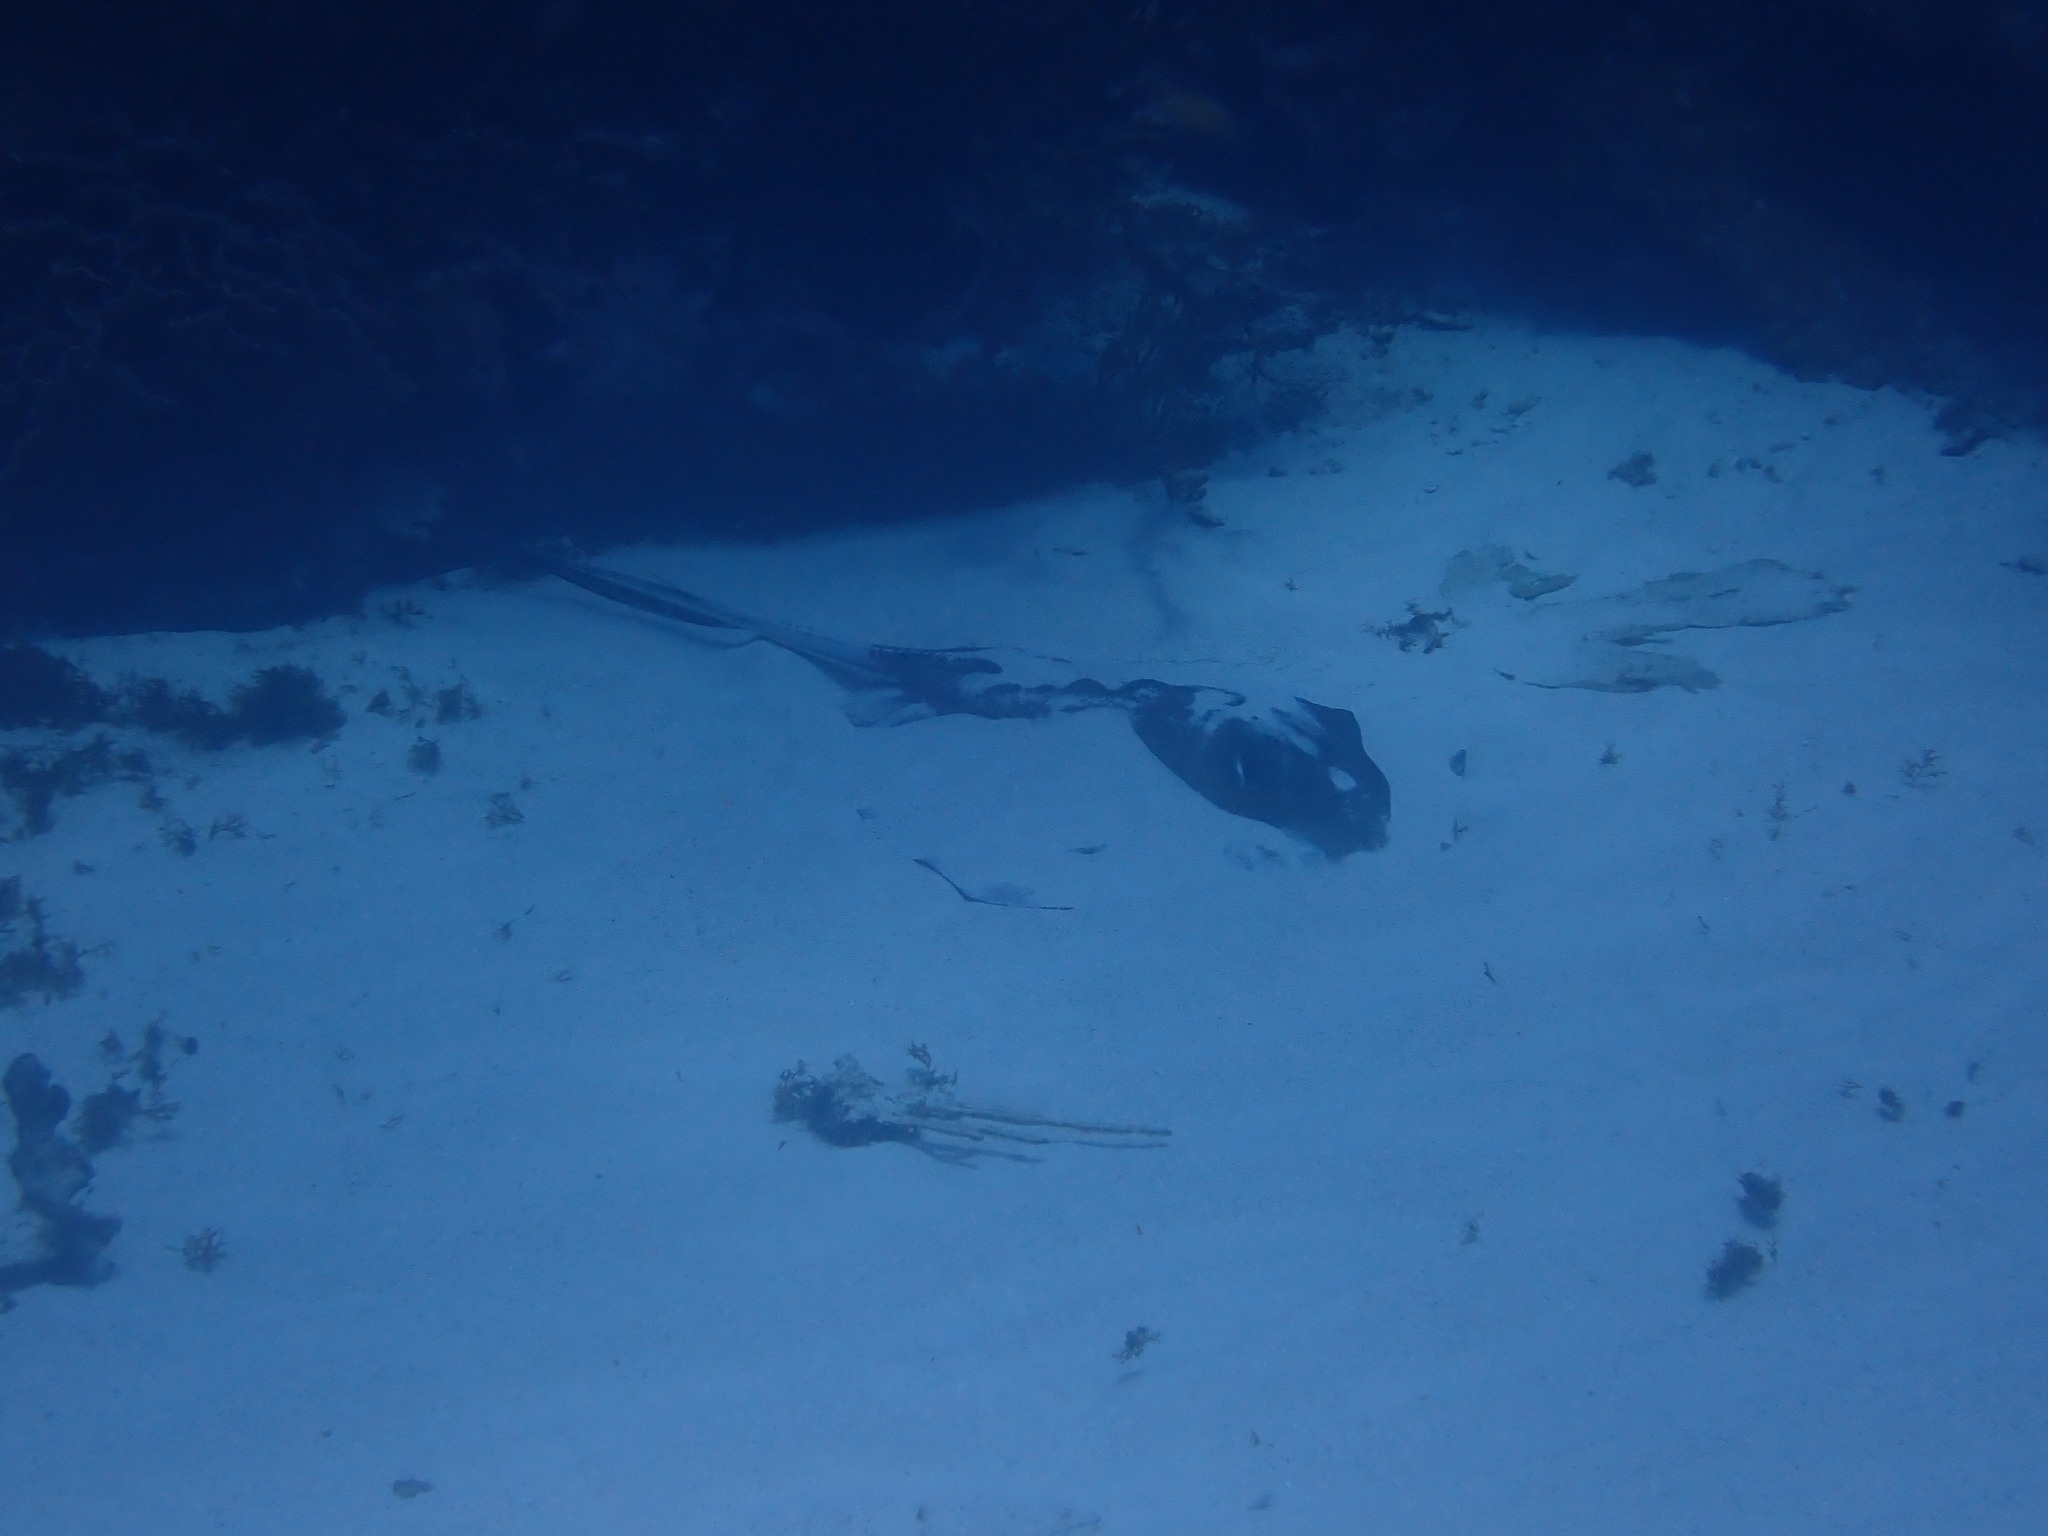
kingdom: Animalia
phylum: Chordata
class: Elasmobranchii
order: Myliobatiformes
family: Dasyatidae
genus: Hypanus
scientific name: Hypanus americanus
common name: Southern stingray
